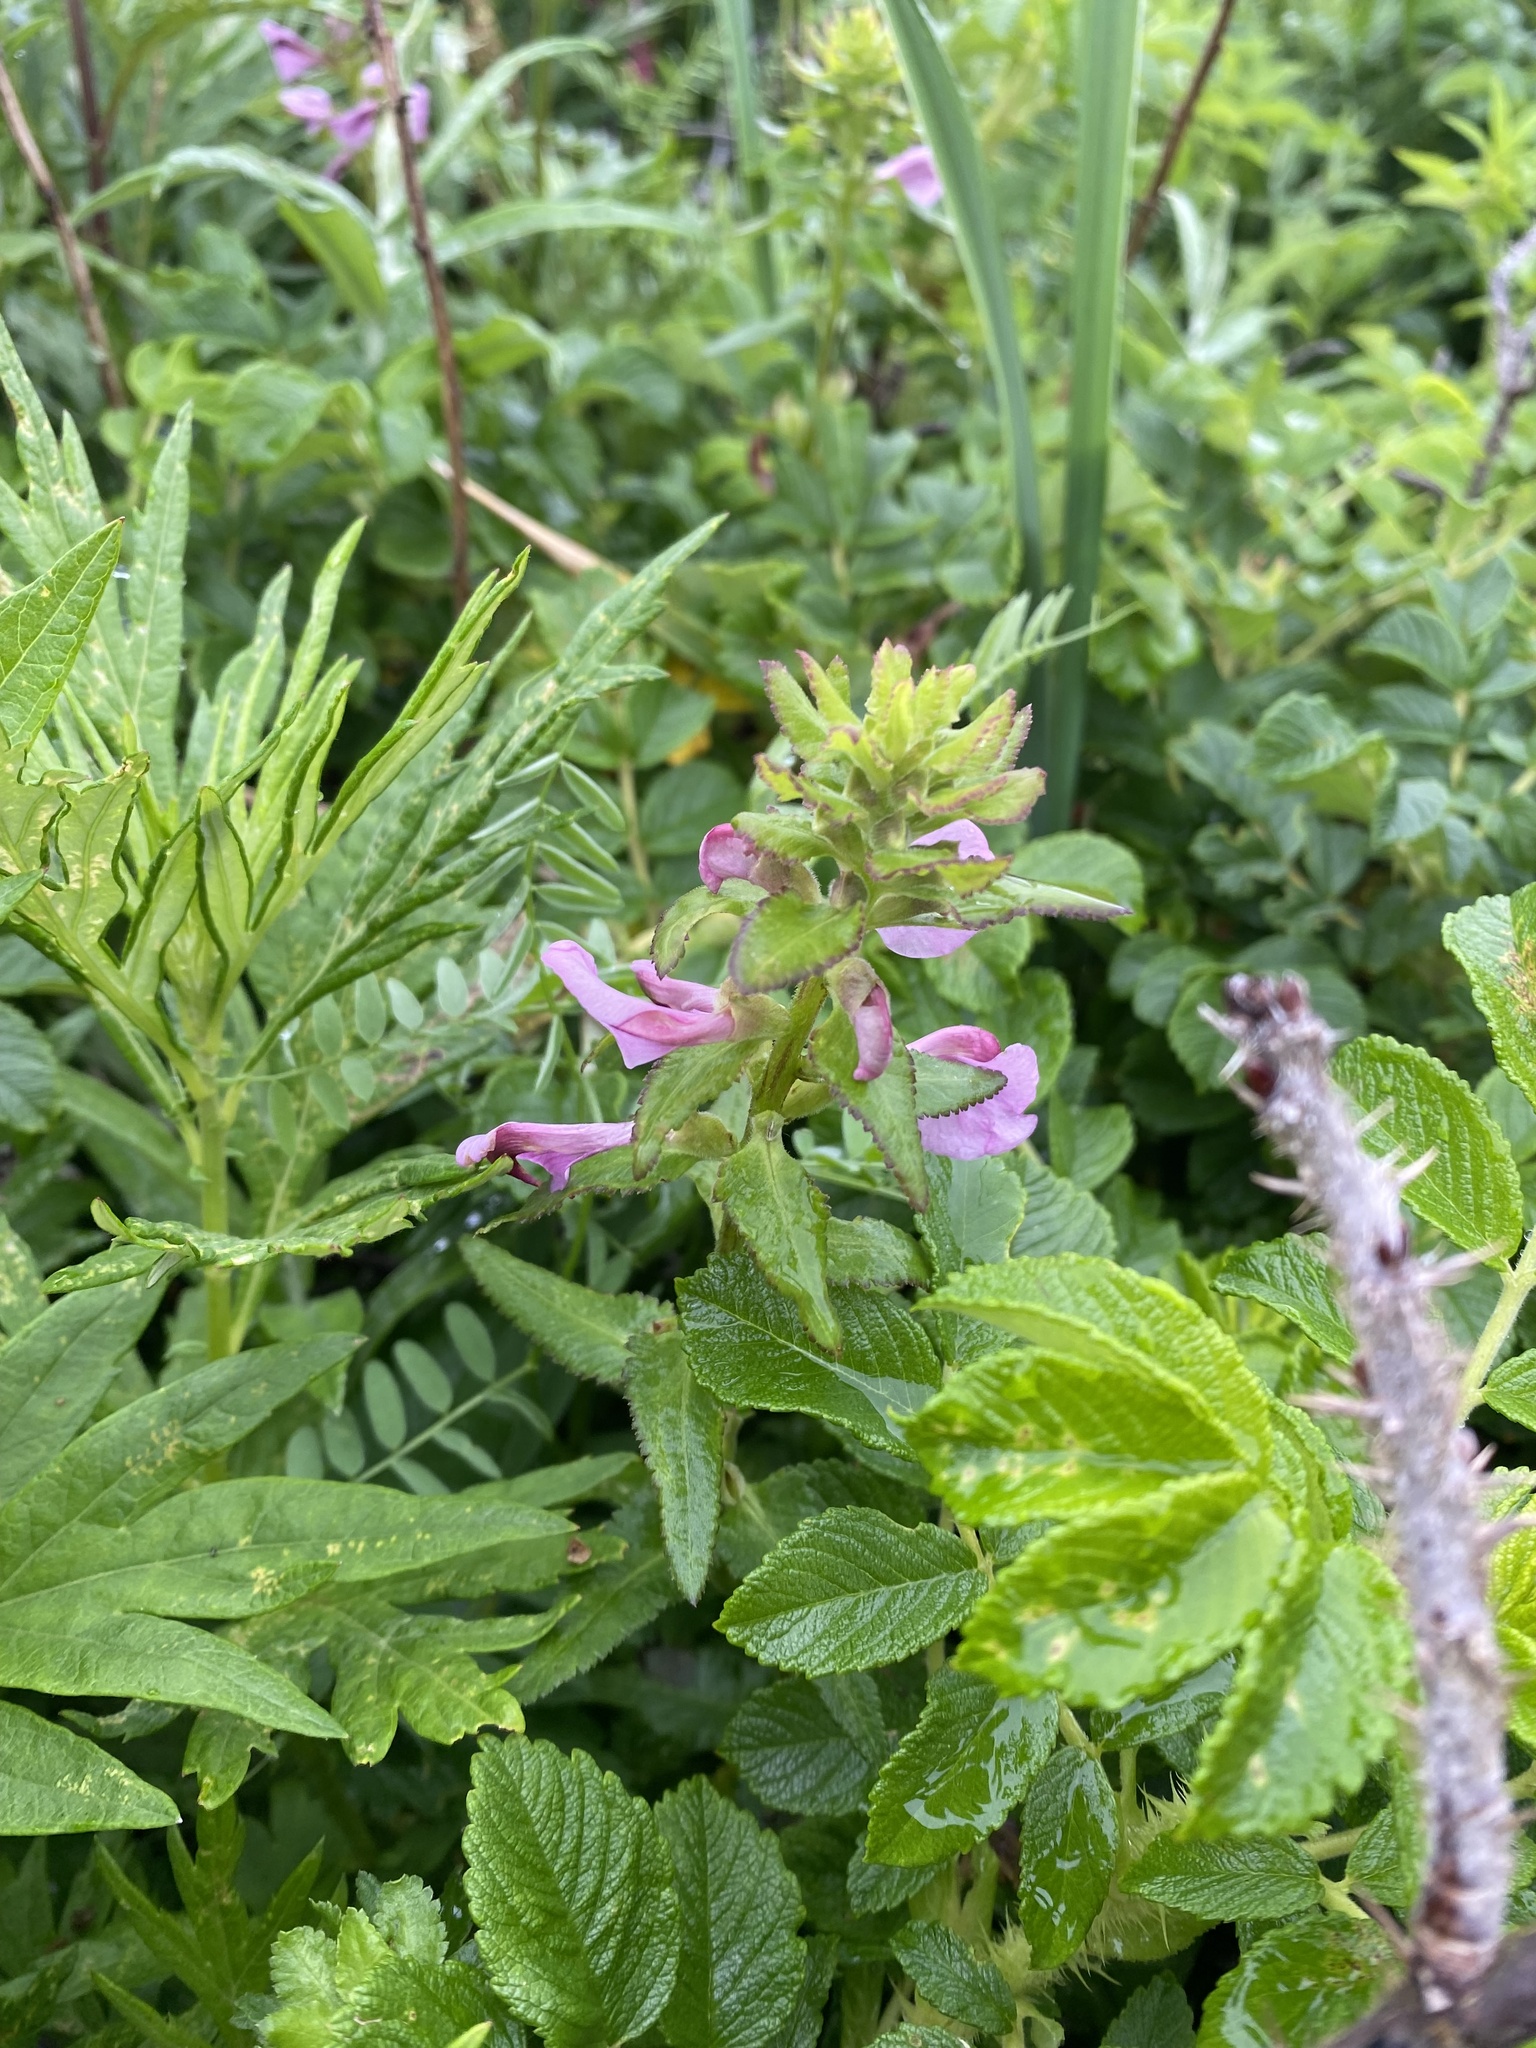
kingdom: Plantae
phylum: Tracheophyta
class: Magnoliopsida
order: Lamiales
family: Orobanchaceae
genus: Pedicularis
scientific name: Pedicularis resupinata
